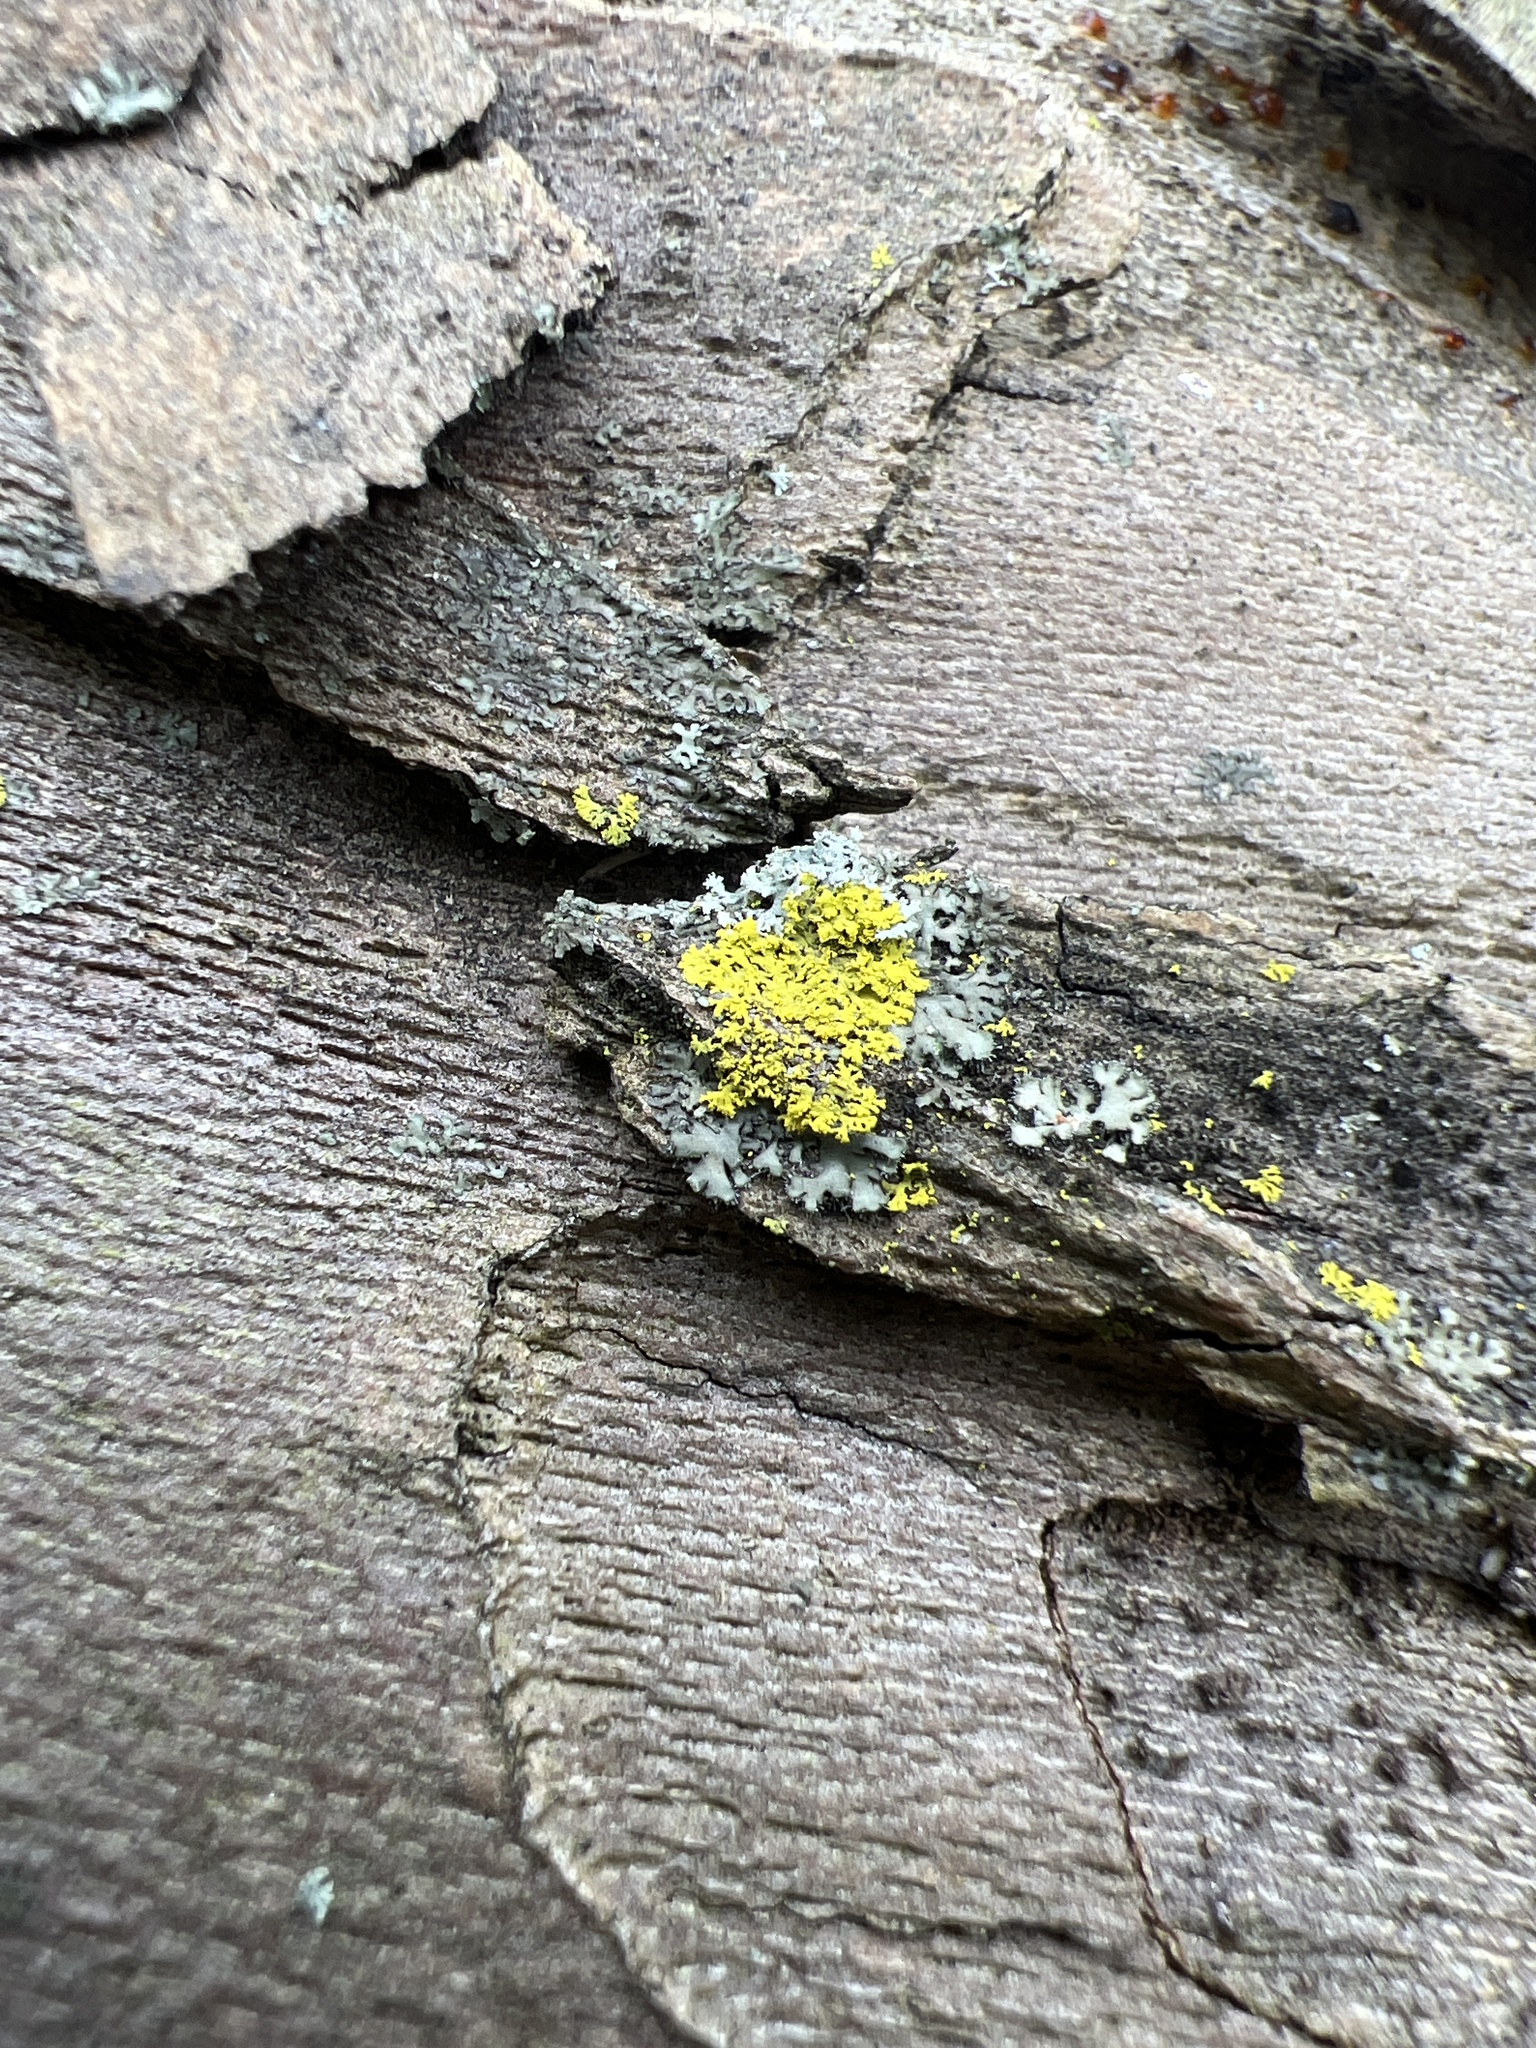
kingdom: Fungi
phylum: Ascomycota
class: Candelariomycetes
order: Candelariales
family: Candelariaceae
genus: Candelaria
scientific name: Candelaria concolor
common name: Candleflame lichen
